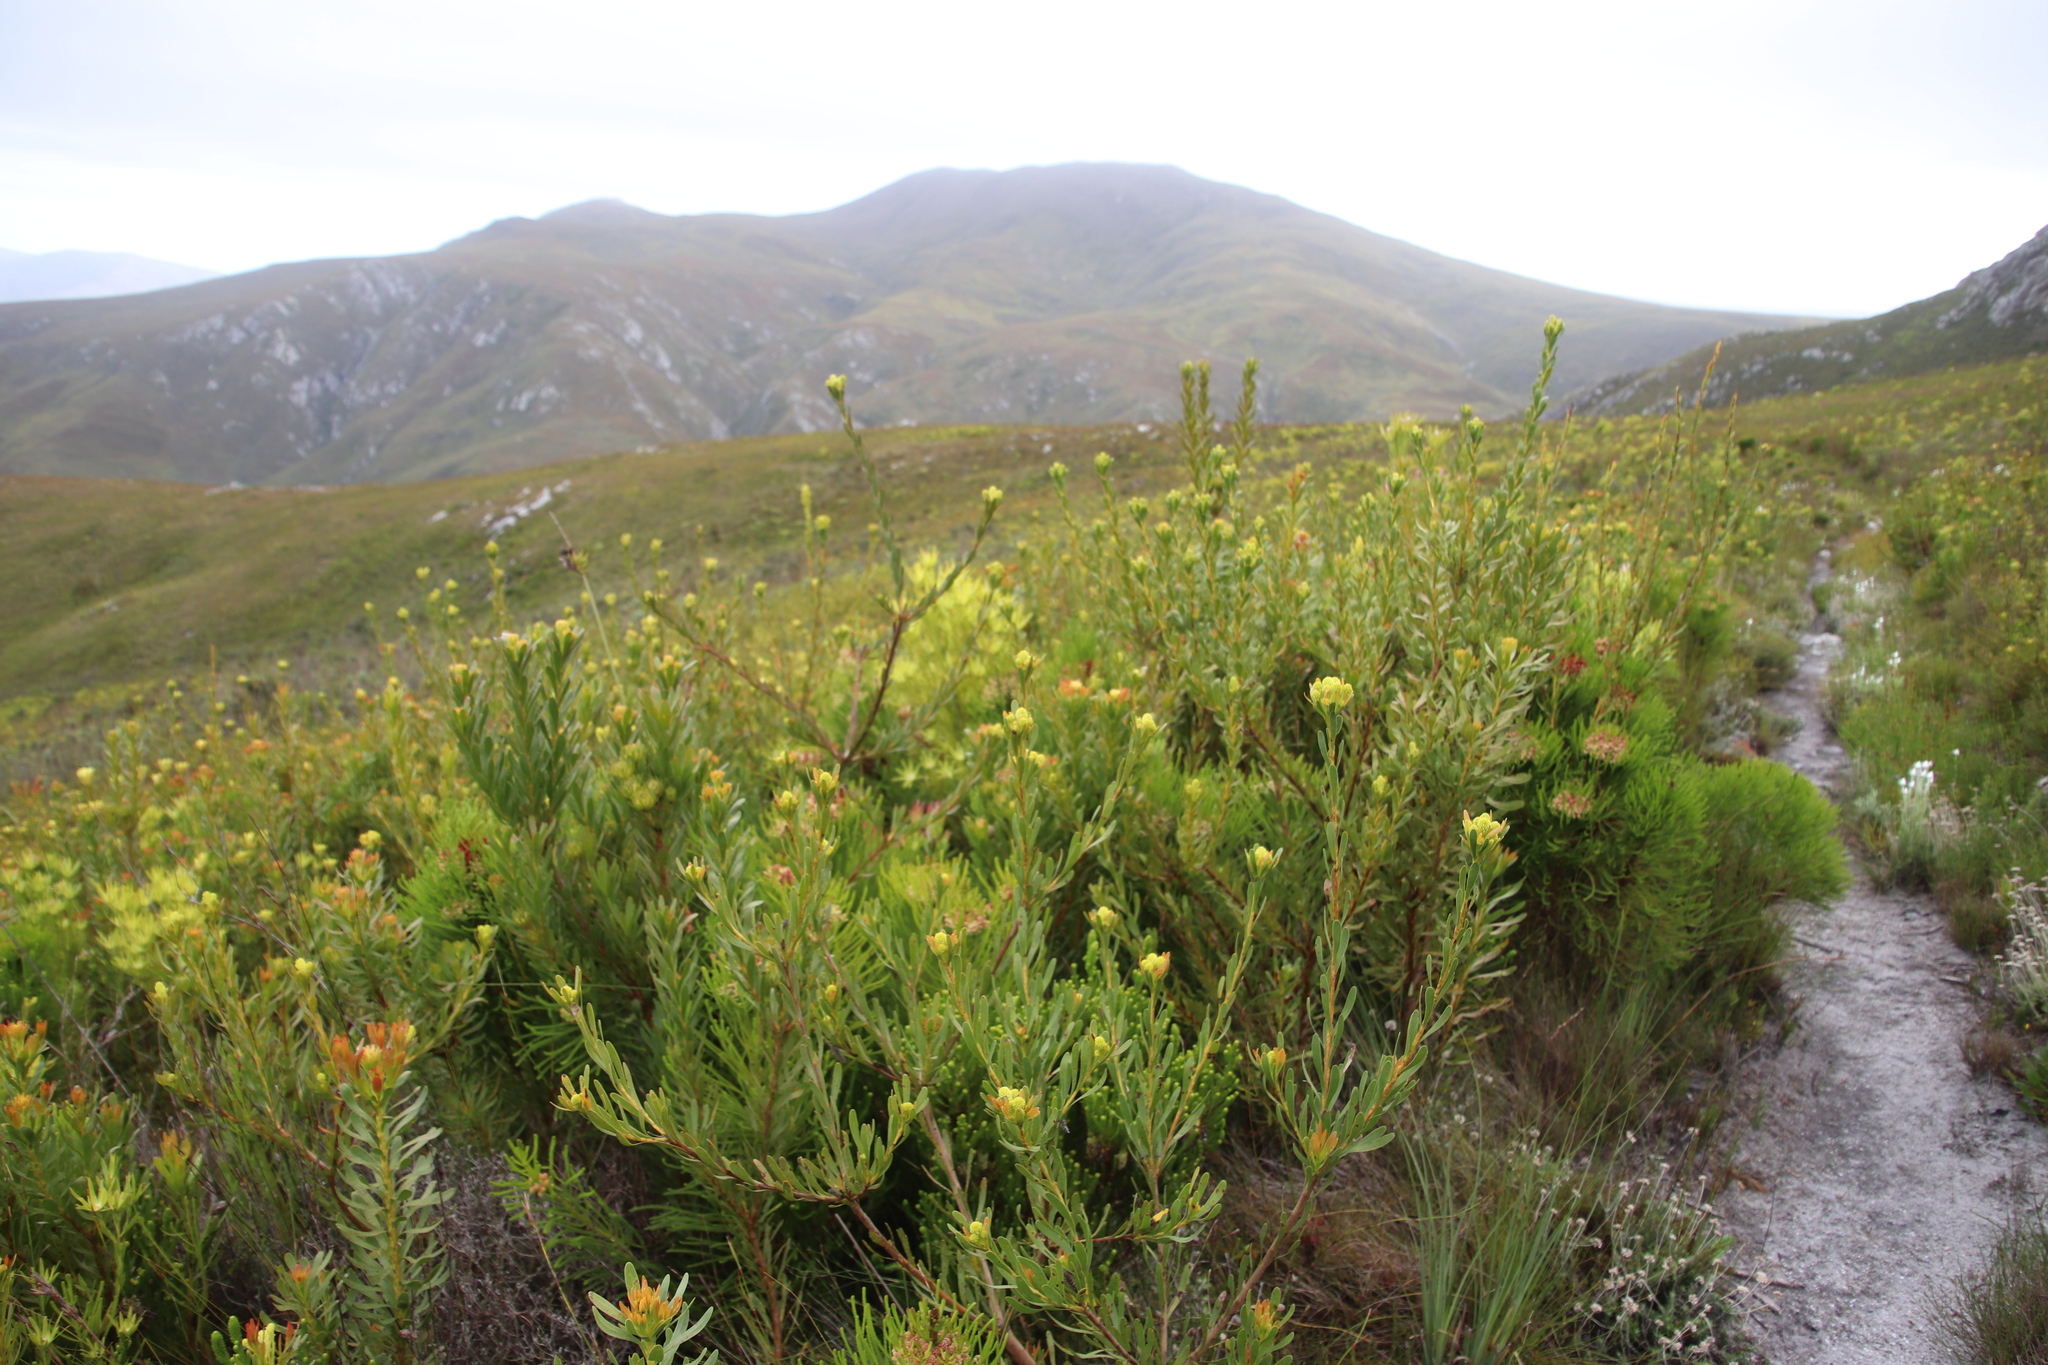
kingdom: Plantae
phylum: Tracheophyta
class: Magnoliopsida
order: Proteales
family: Proteaceae
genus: Aulax
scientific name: Aulax umbellata
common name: Broad-leaf featherbush
